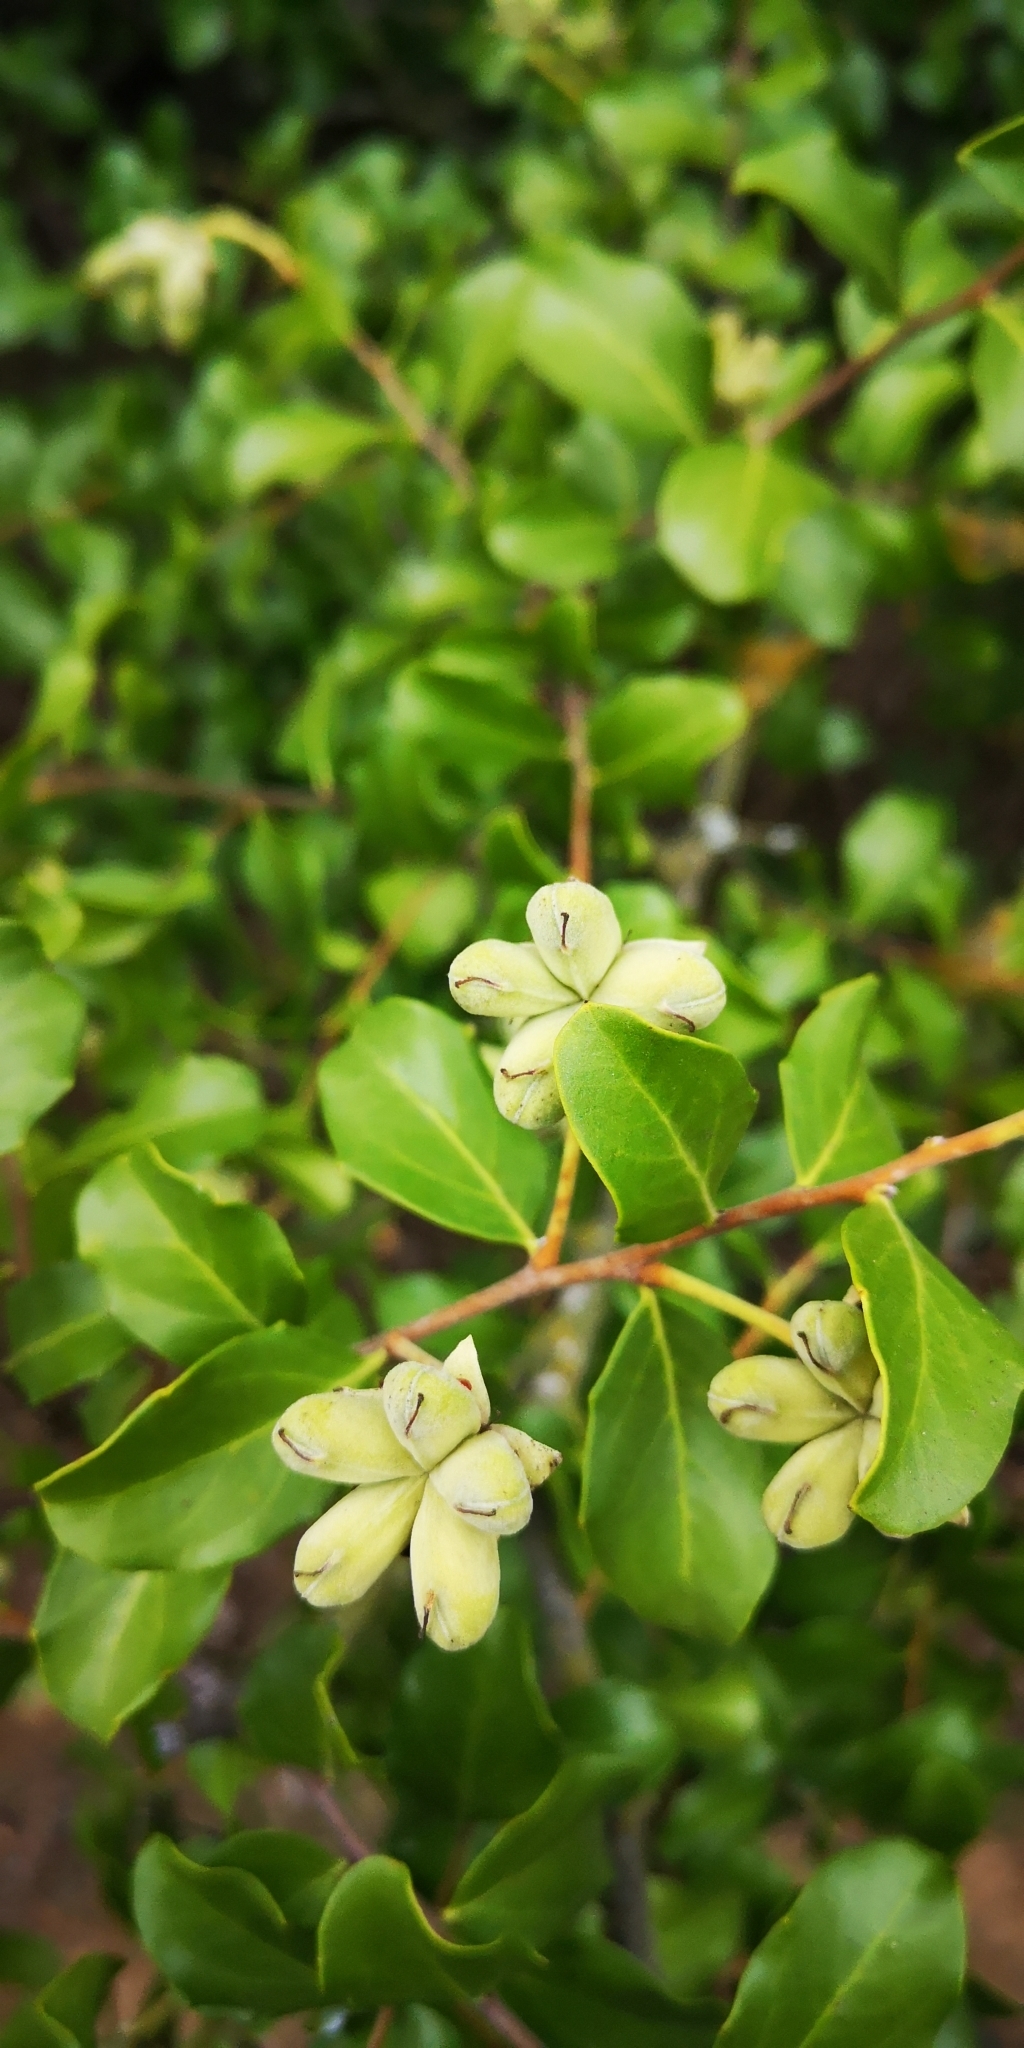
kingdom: Plantae
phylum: Tracheophyta
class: Magnoliopsida
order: Fabales
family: Quillajaceae
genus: Quillaja
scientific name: Quillaja saponaria
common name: Murillo's-bark
